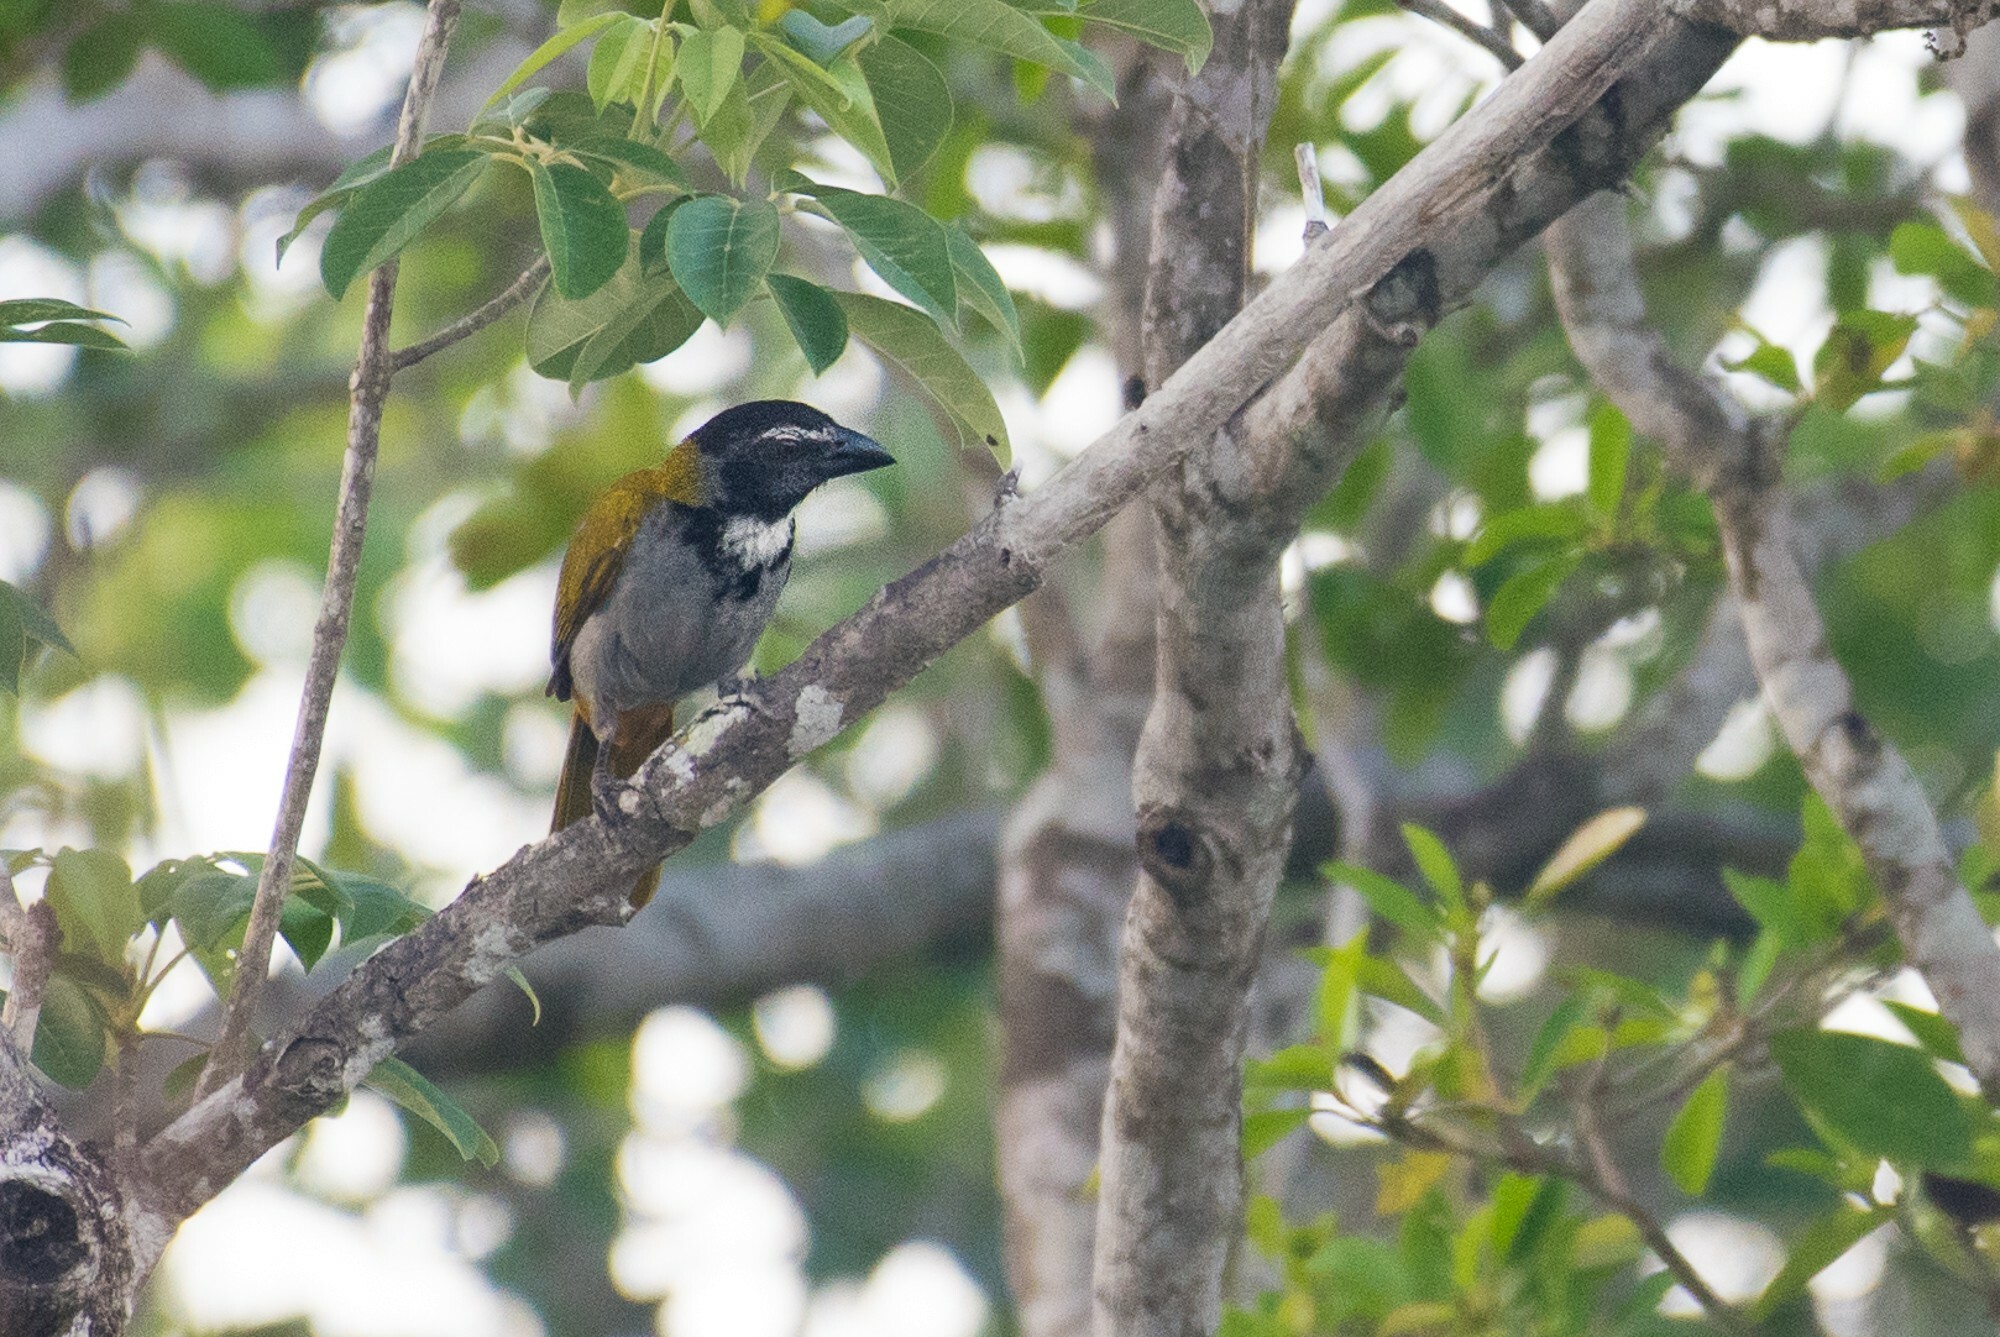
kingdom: Animalia
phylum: Chordata
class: Aves
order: Passeriformes
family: Thraupidae
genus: Saltator
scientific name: Saltator atriceps
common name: Black-headed saltator
